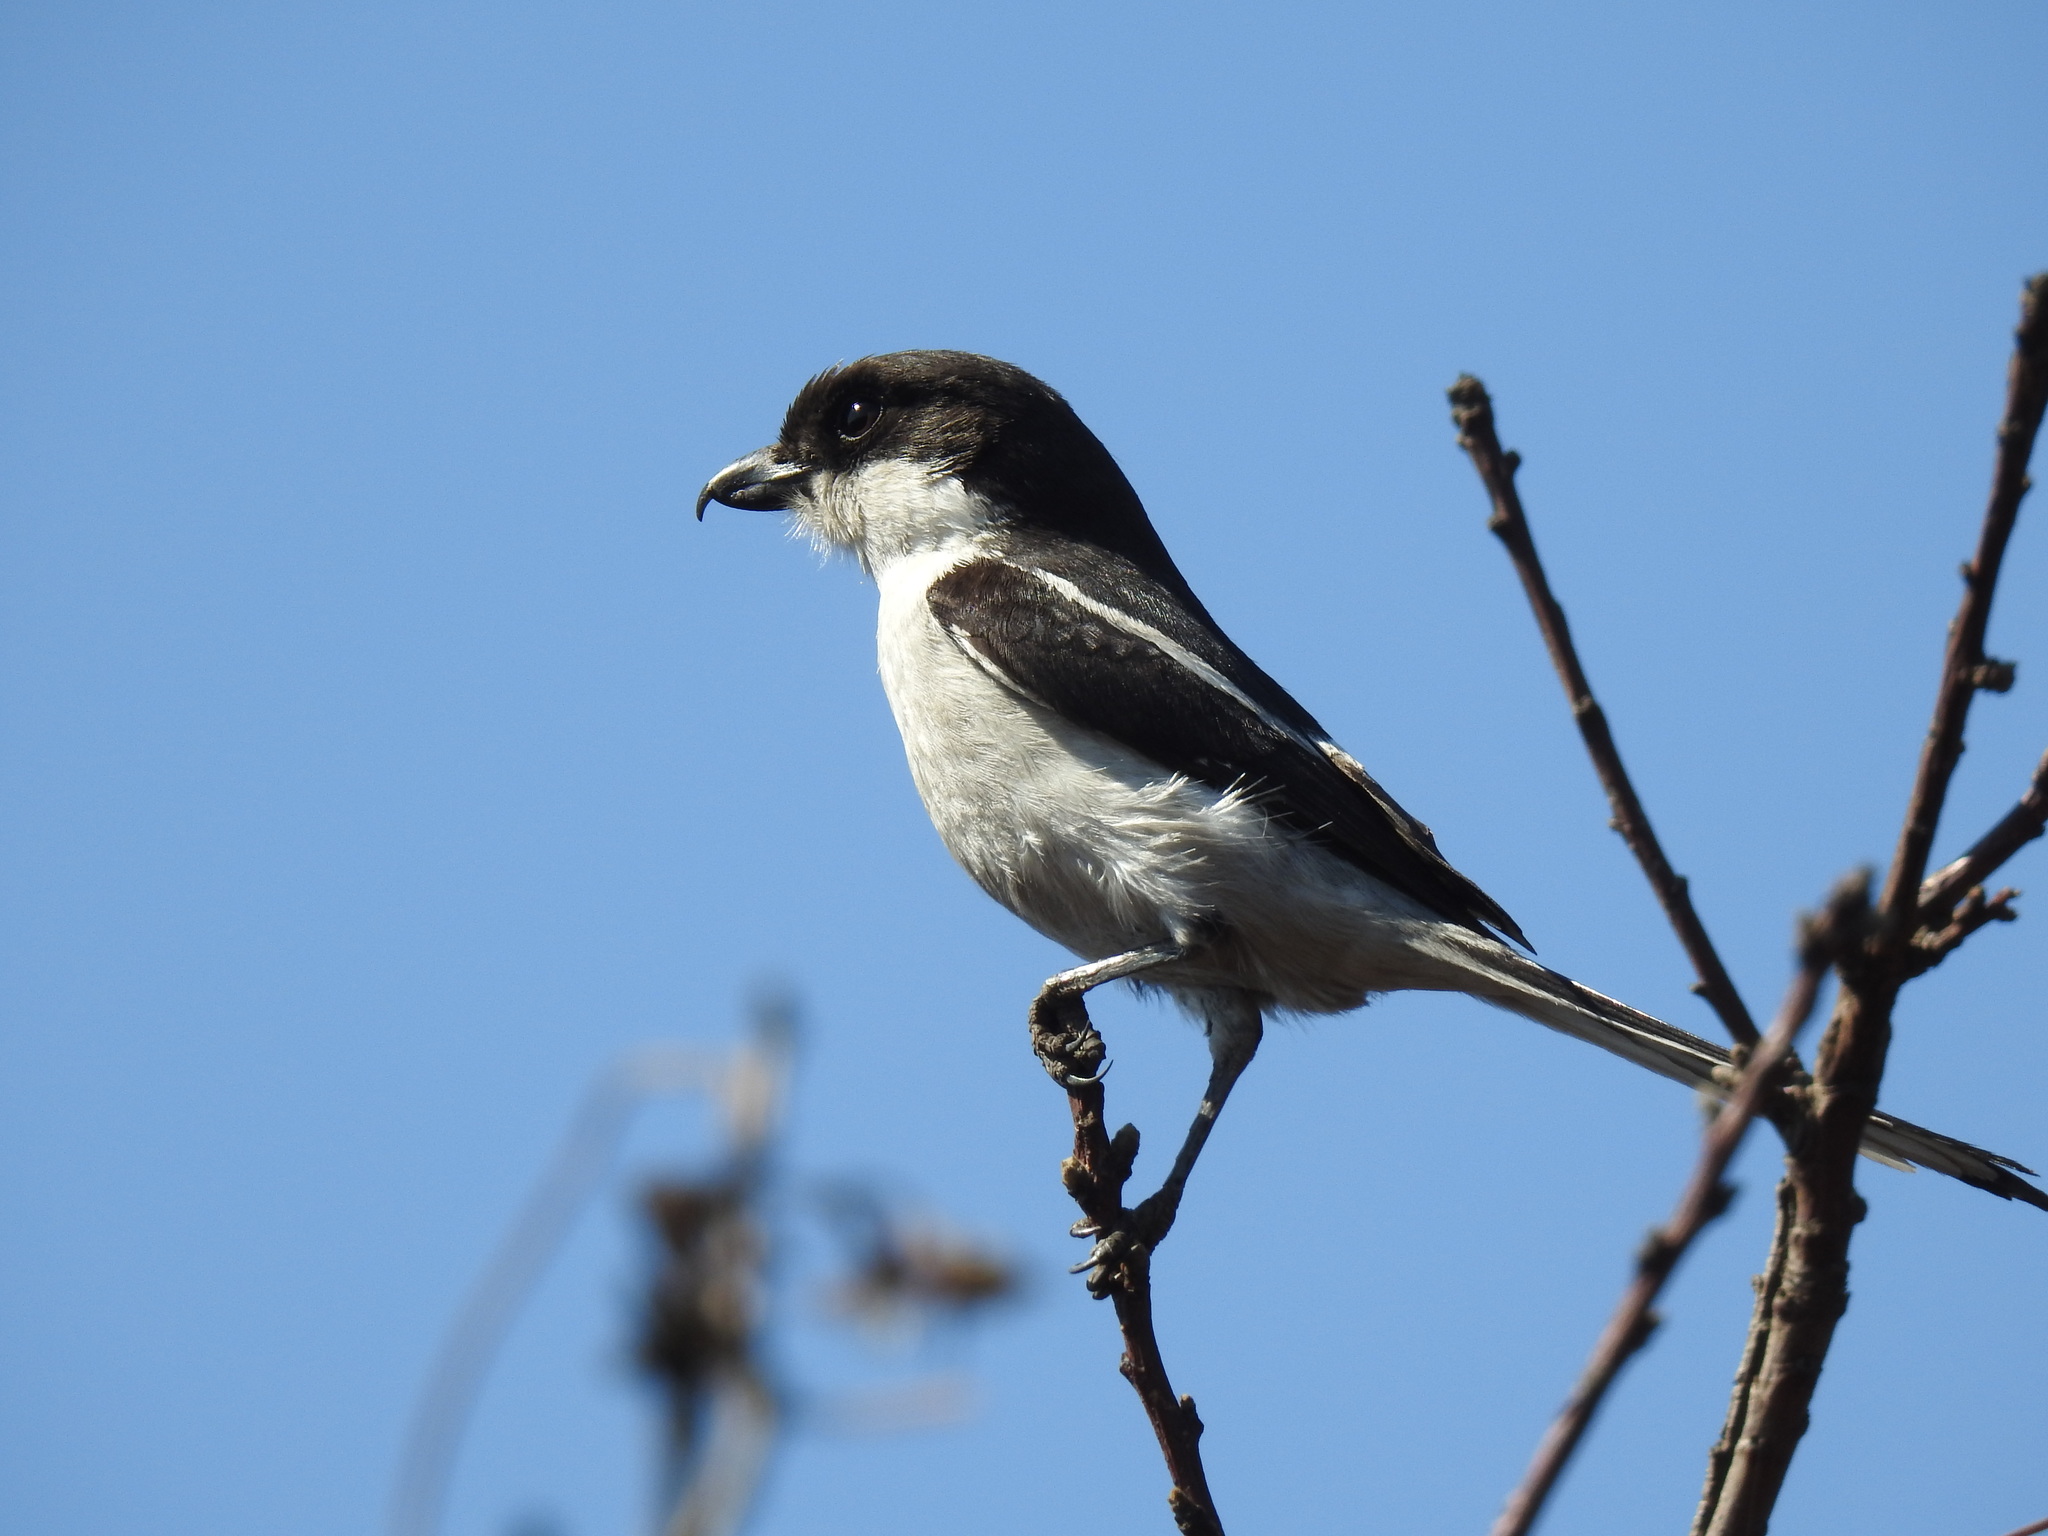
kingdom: Animalia
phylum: Chordata
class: Aves
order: Passeriformes
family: Laniidae
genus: Lanius
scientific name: Lanius collaris
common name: Southern fiscal
